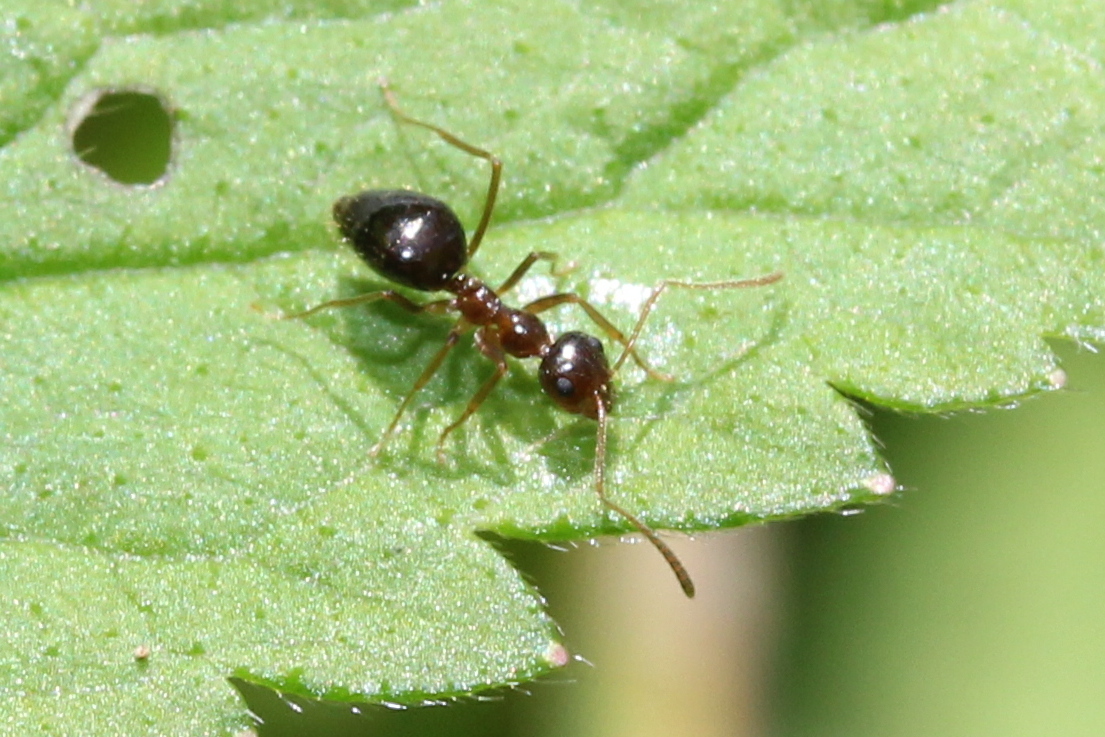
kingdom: Animalia
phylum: Arthropoda
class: Insecta
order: Hymenoptera
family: Formicidae
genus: Prenolepis
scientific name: Prenolepis imparis
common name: Small honey ant
